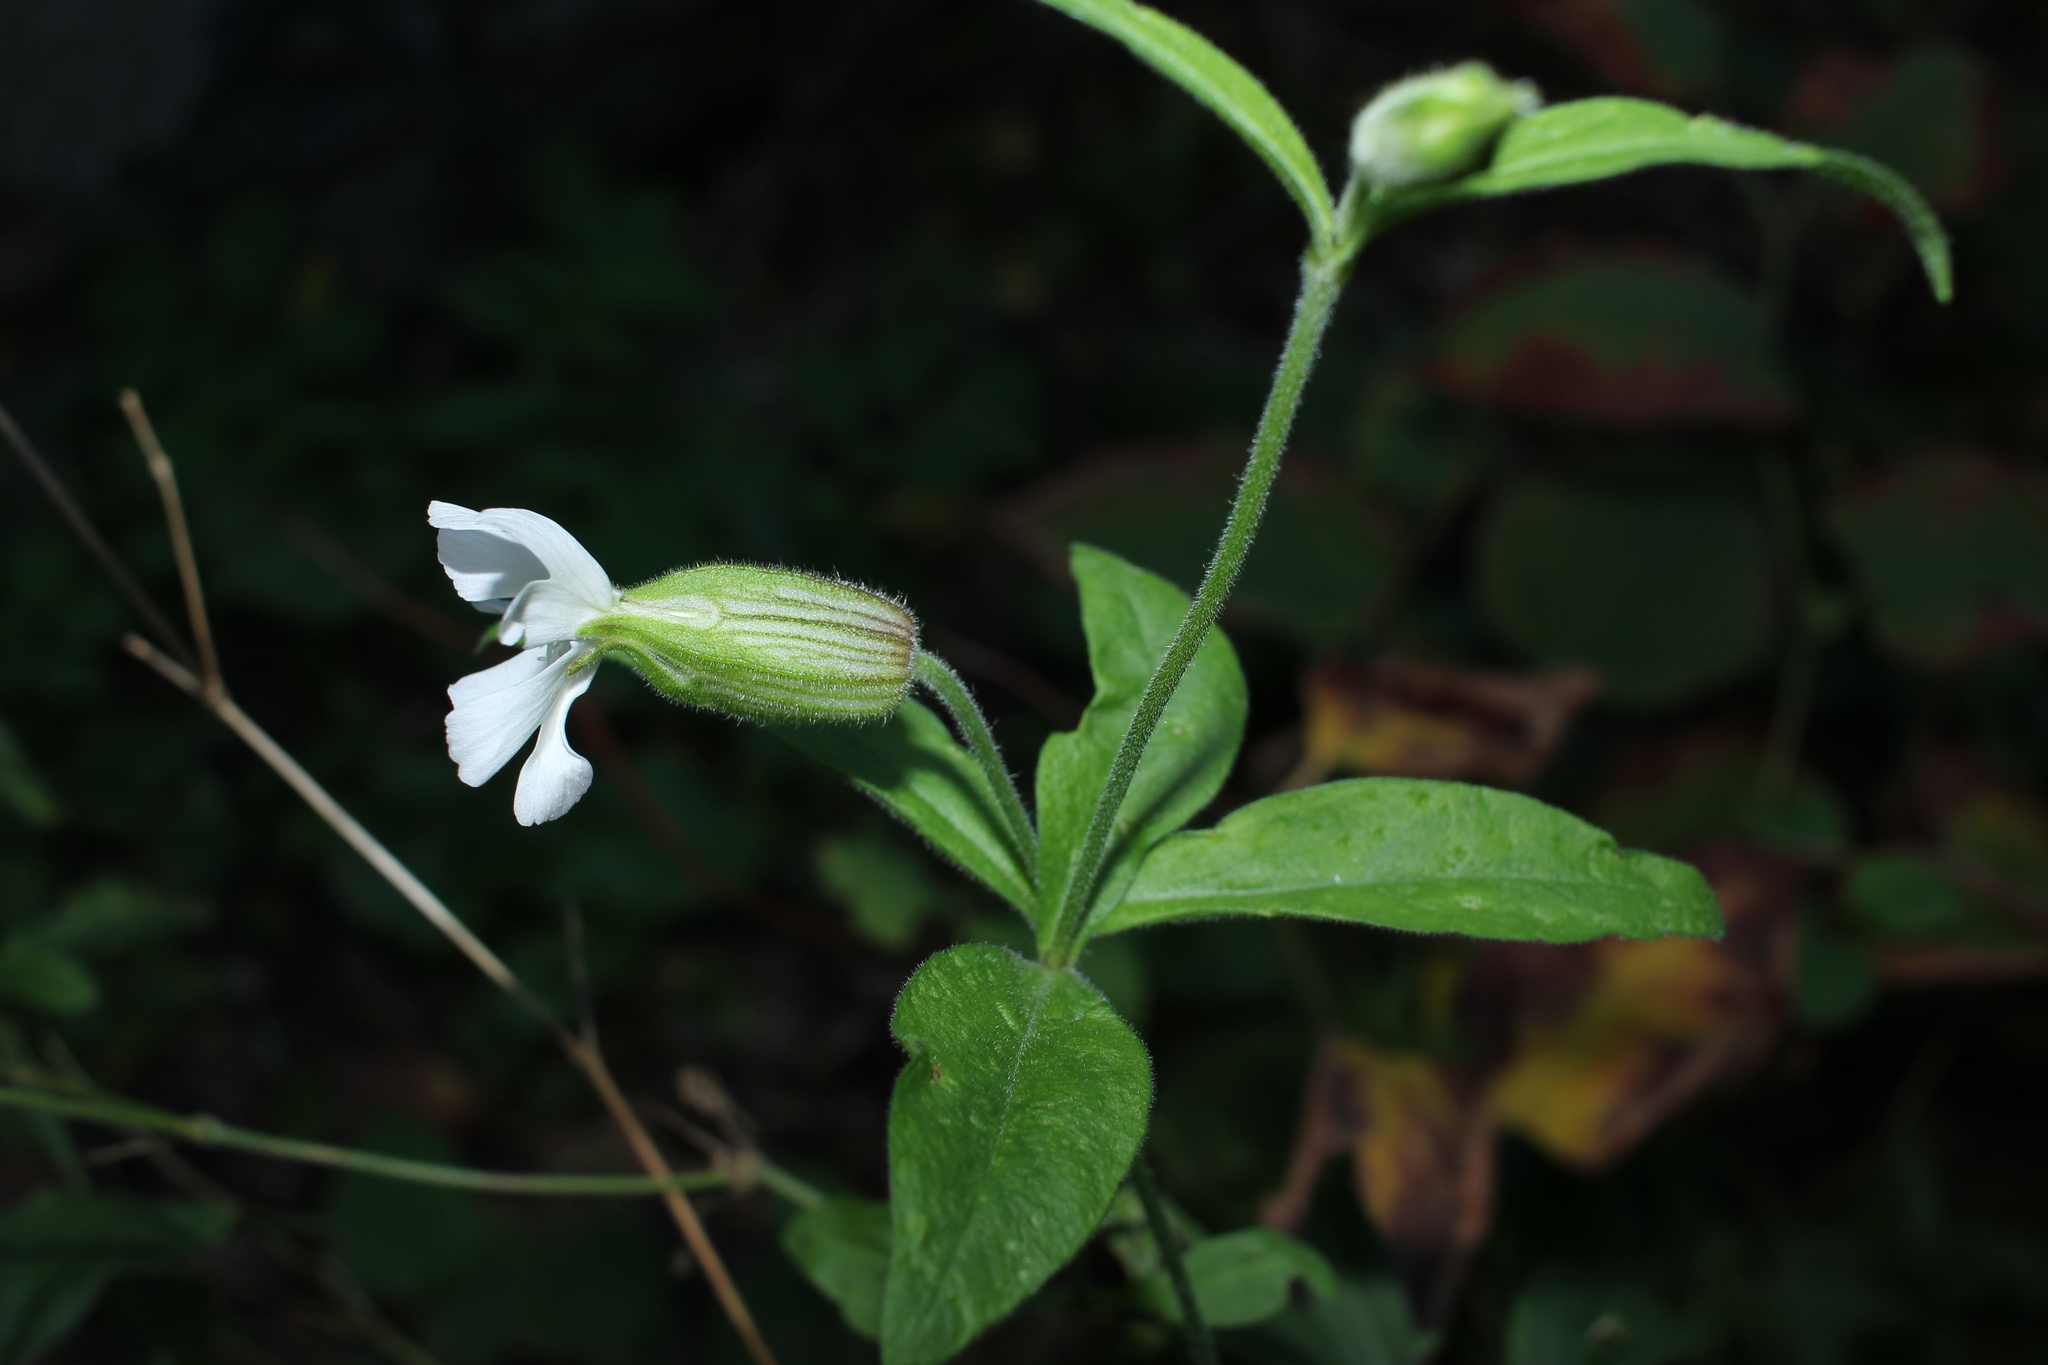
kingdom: Plantae
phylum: Tracheophyta
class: Magnoliopsida
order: Caryophyllales
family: Caryophyllaceae
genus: Silene
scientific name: Silene latifolia
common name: White campion
